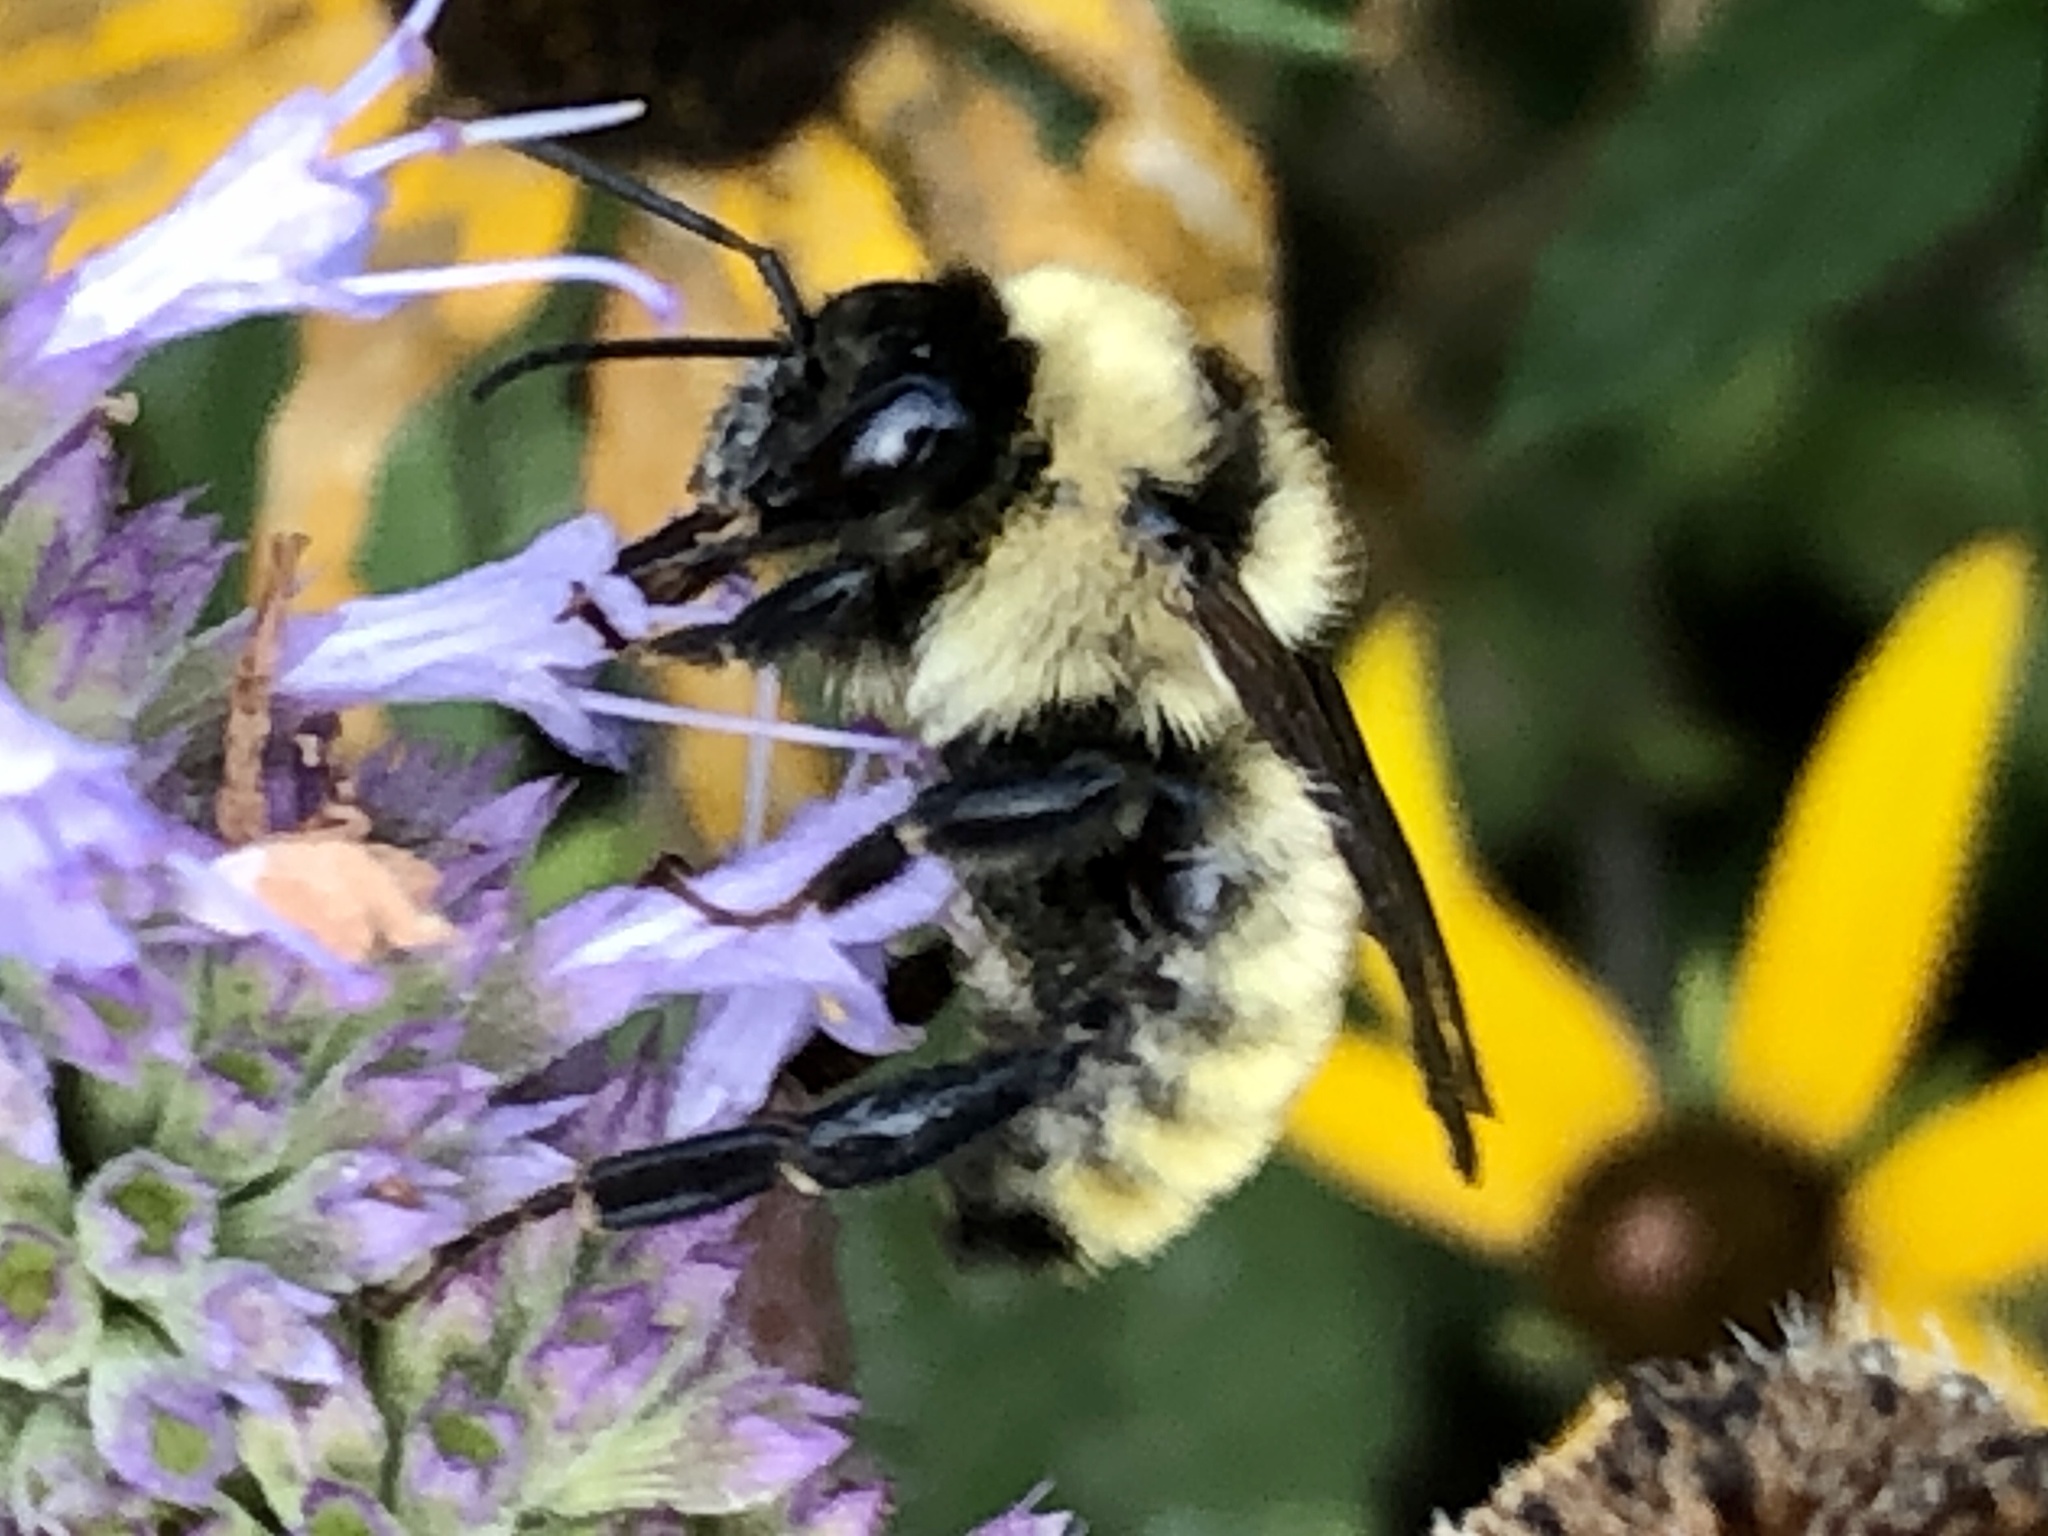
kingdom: Animalia
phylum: Arthropoda
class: Insecta
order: Hymenoptera
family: Apidae
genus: Bombus
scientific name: Bombus fervidus
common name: Yellow bumble bee
